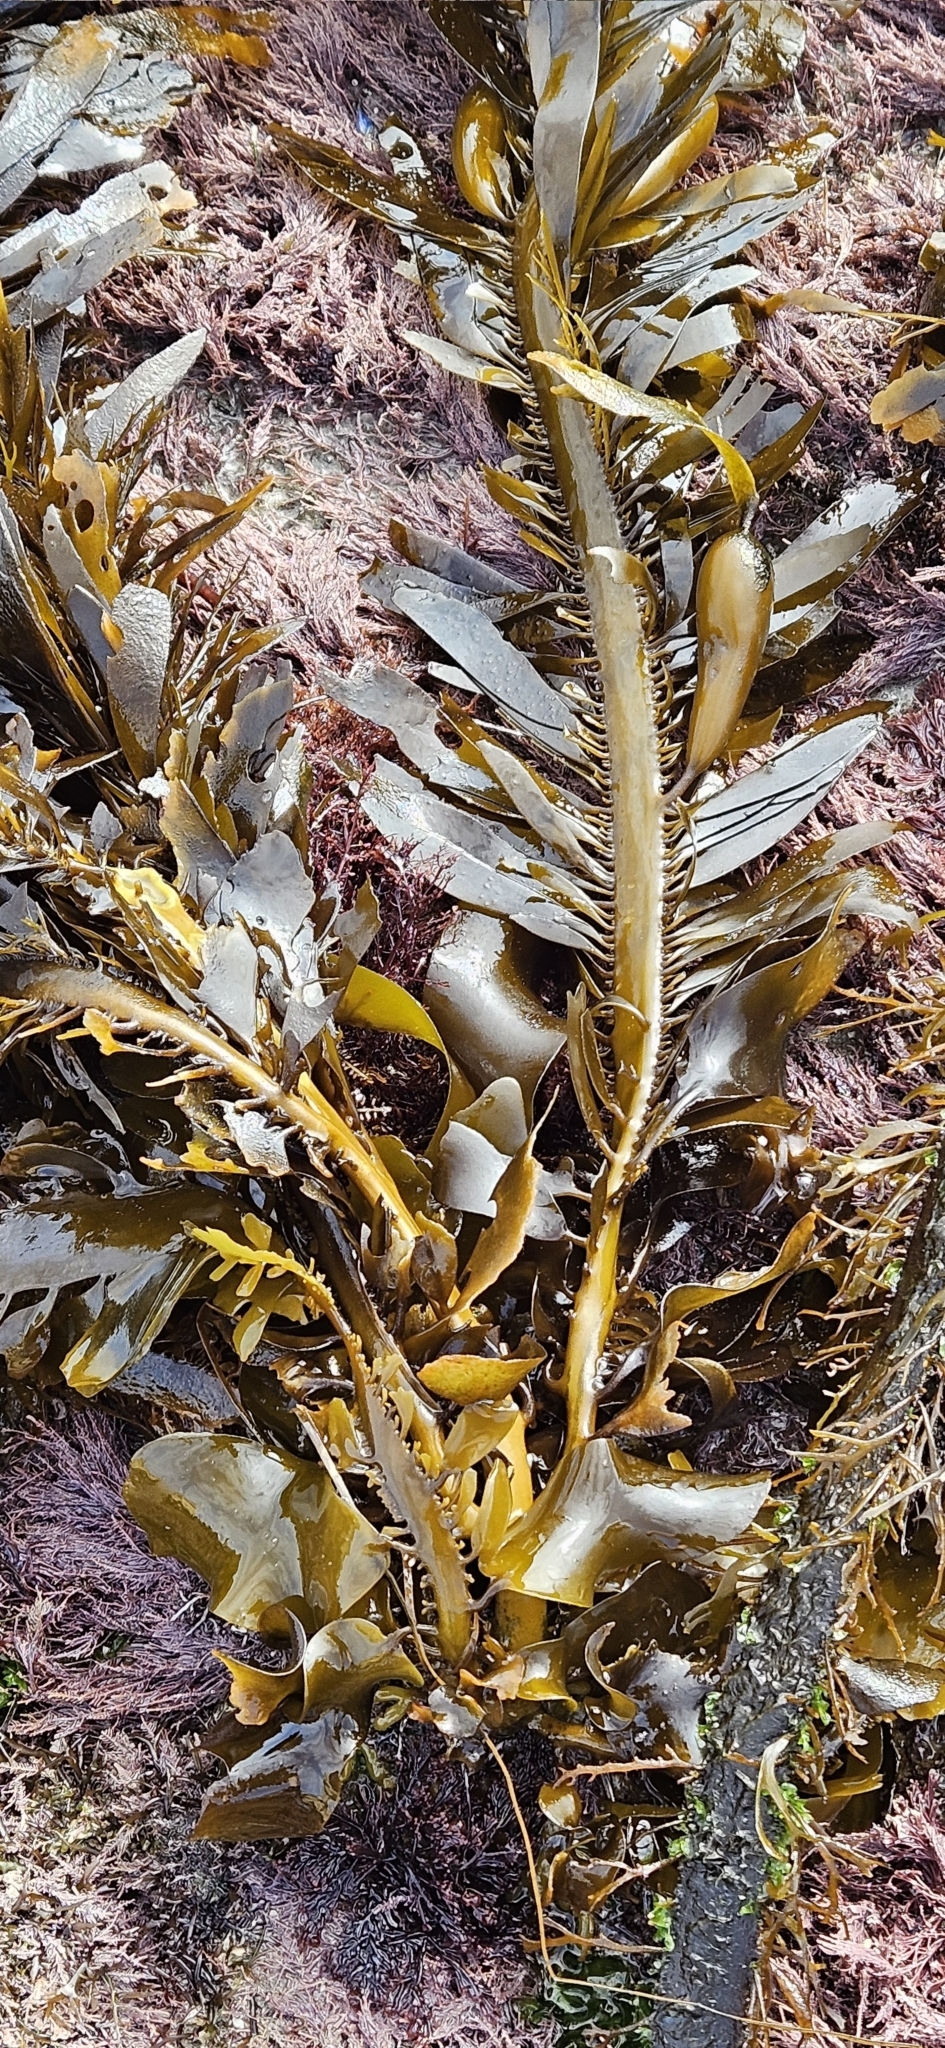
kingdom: Chromista
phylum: Ochrophyta
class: Phaeophyceae
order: Laminariales
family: Lessoniaceae
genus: Egregia
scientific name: Egregia menziesii
